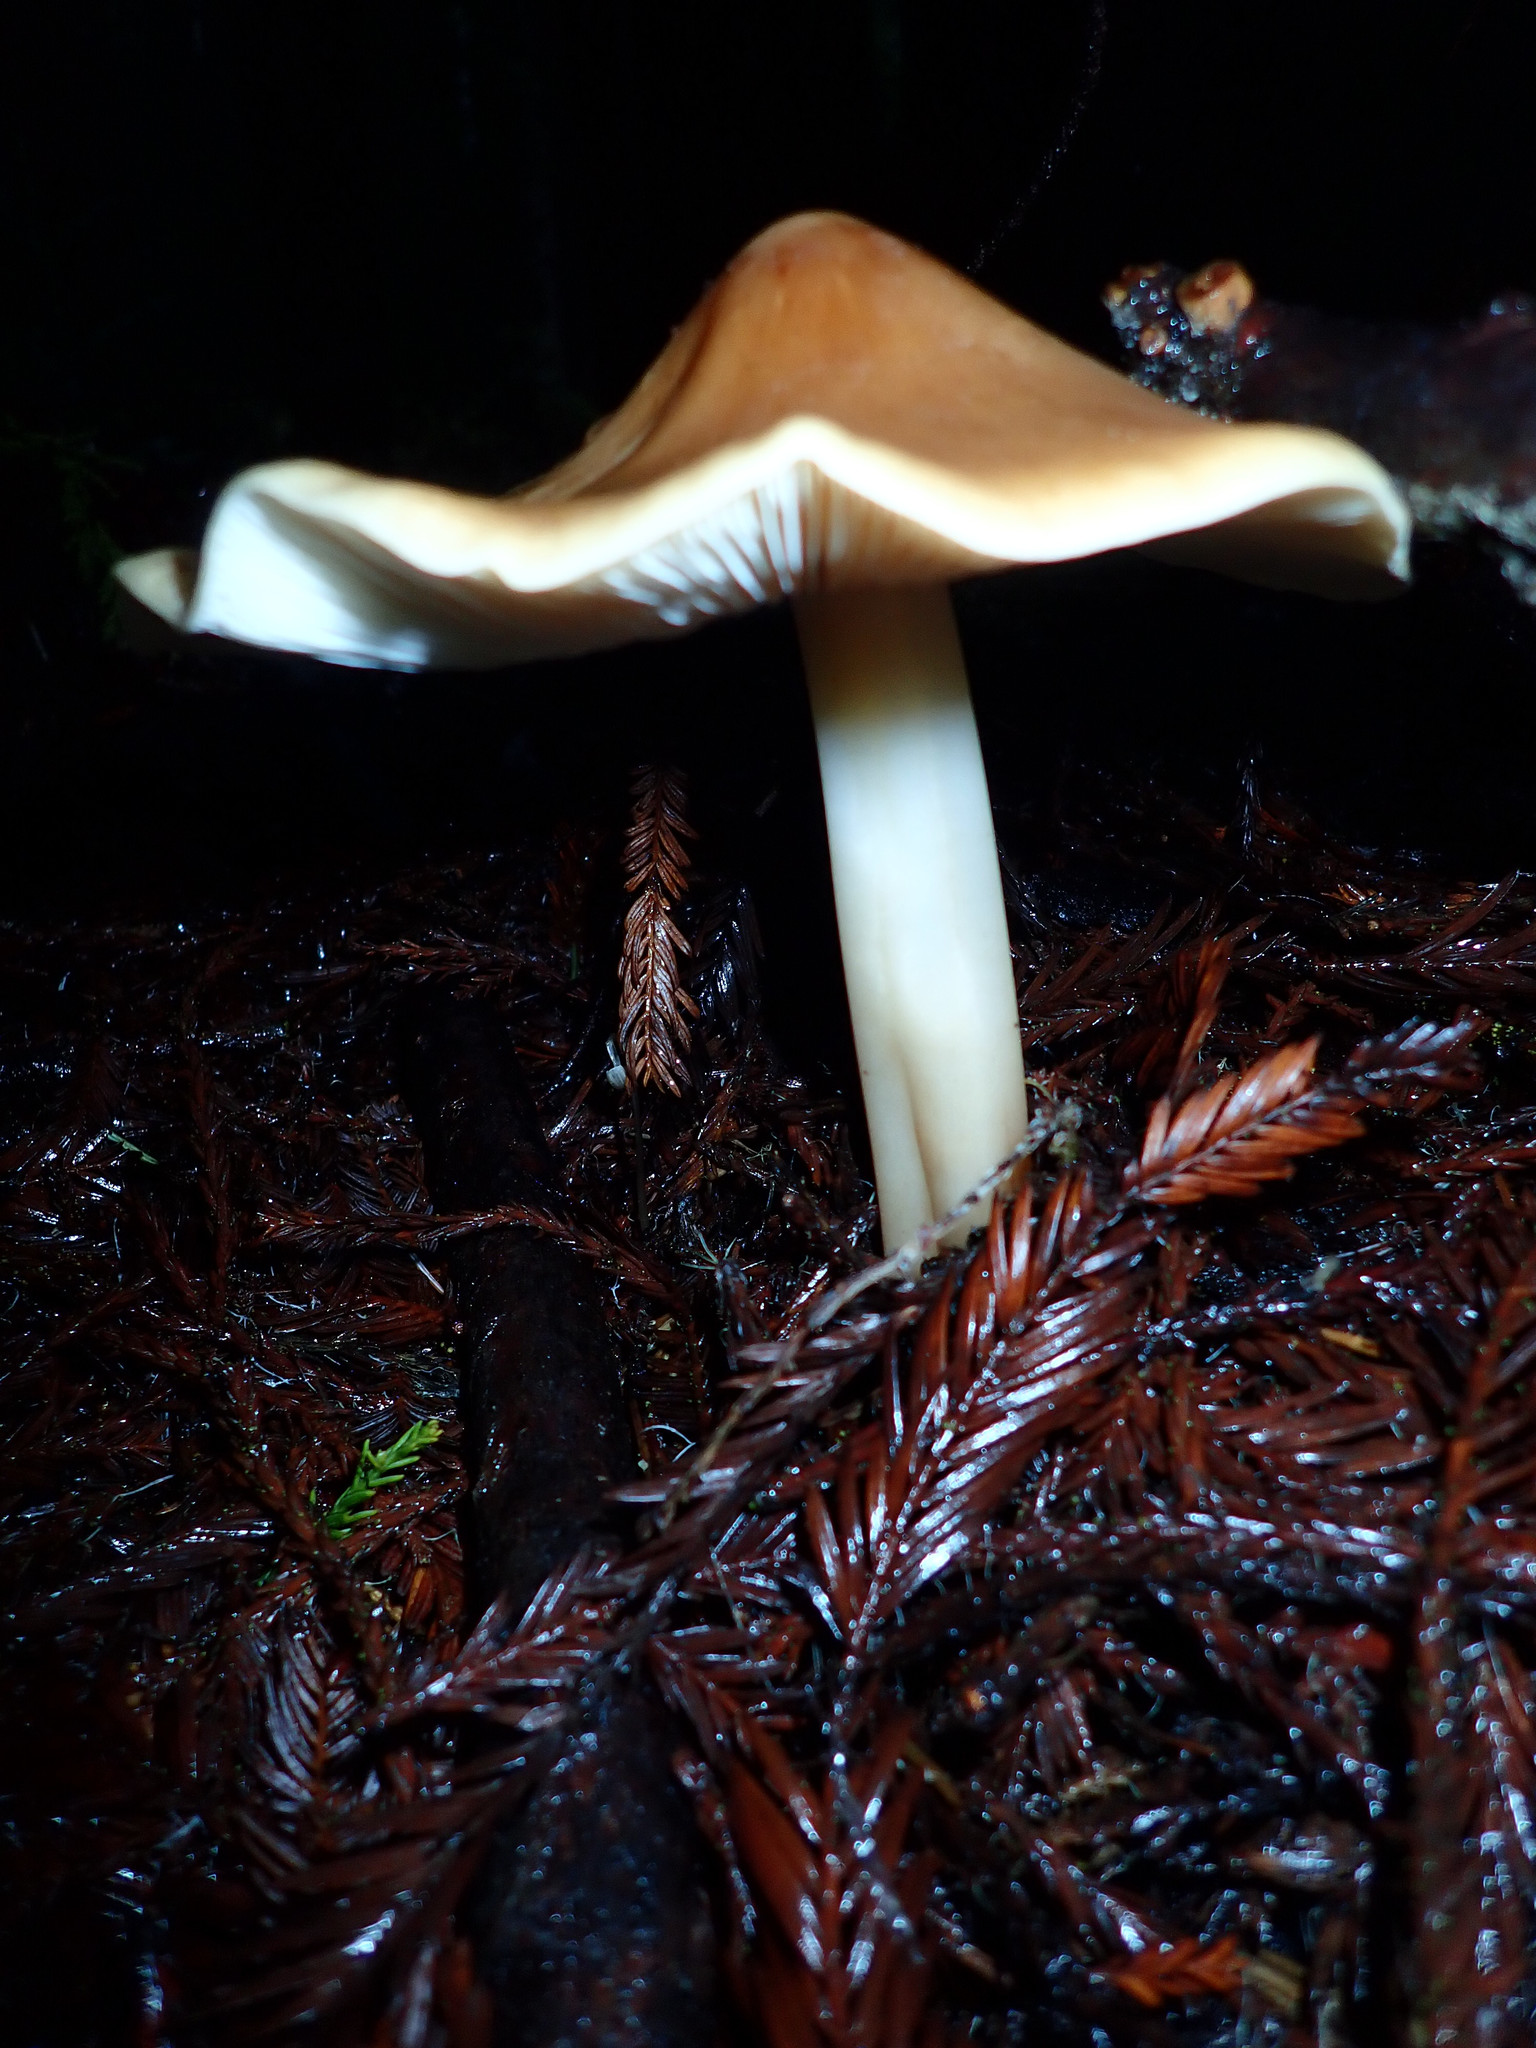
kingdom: Fungi
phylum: Basidiomycota
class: Agaricomycetes
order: Agaricales
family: Tricholomataceae
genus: Caulorhiza
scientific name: Caulorhiza umbonata
